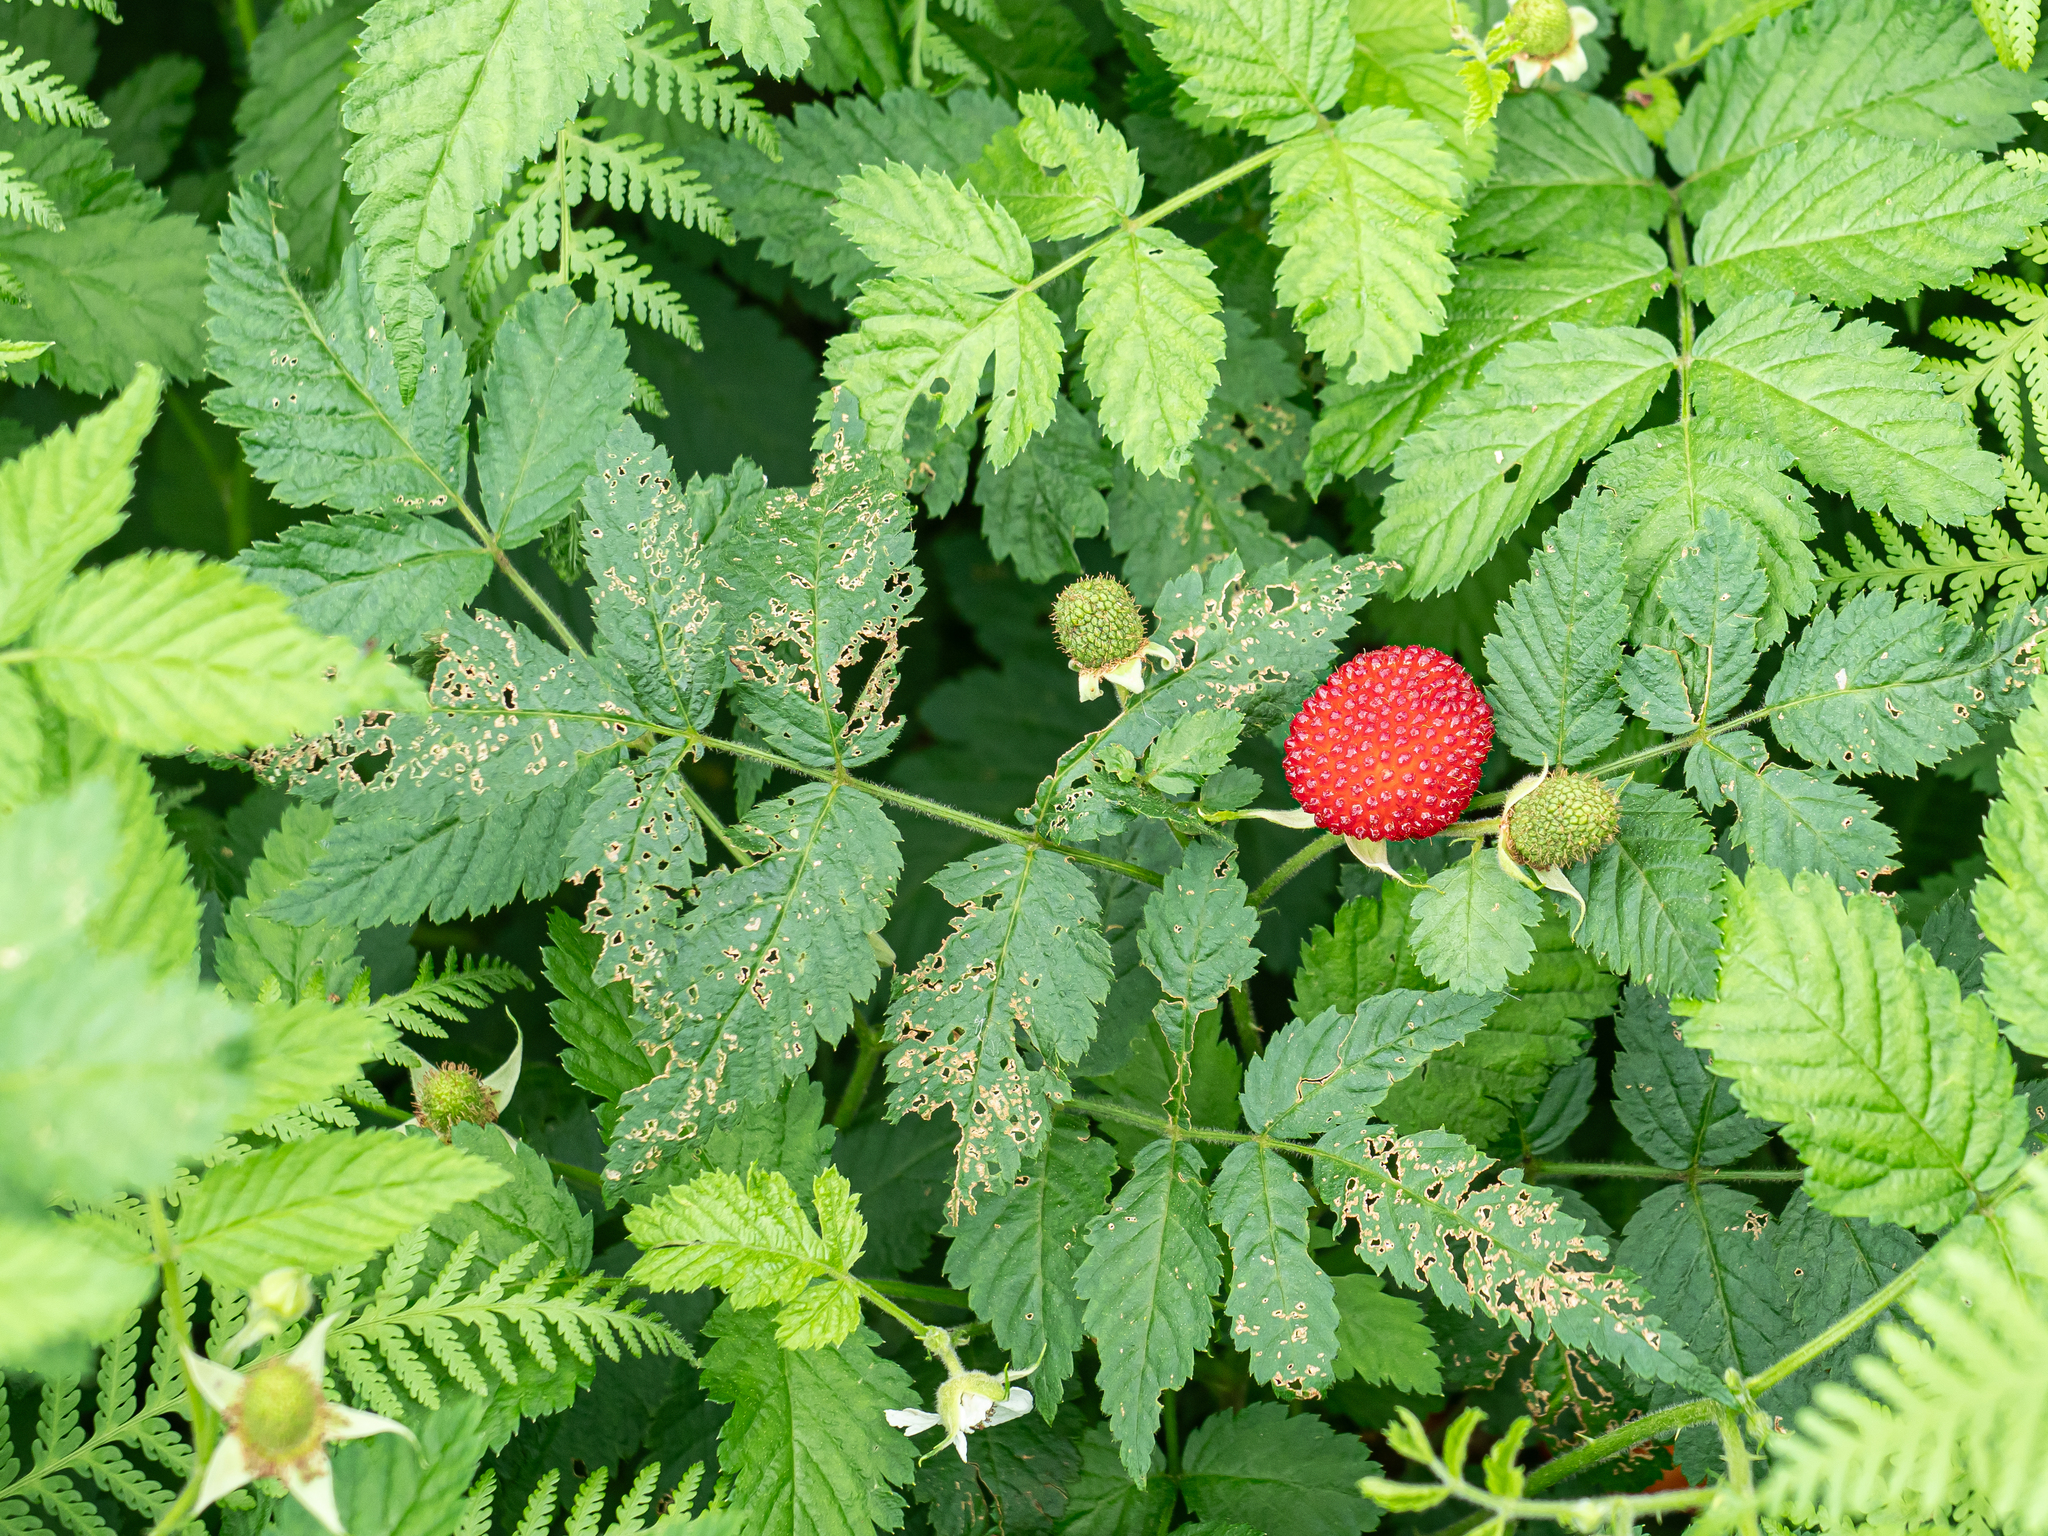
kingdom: Plantae
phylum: Tracheophyta
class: Magnoliopsida
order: Rosales
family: Rosaceae
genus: Rubus
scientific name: Rubus rosifolius
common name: Roseleaf raspberry
